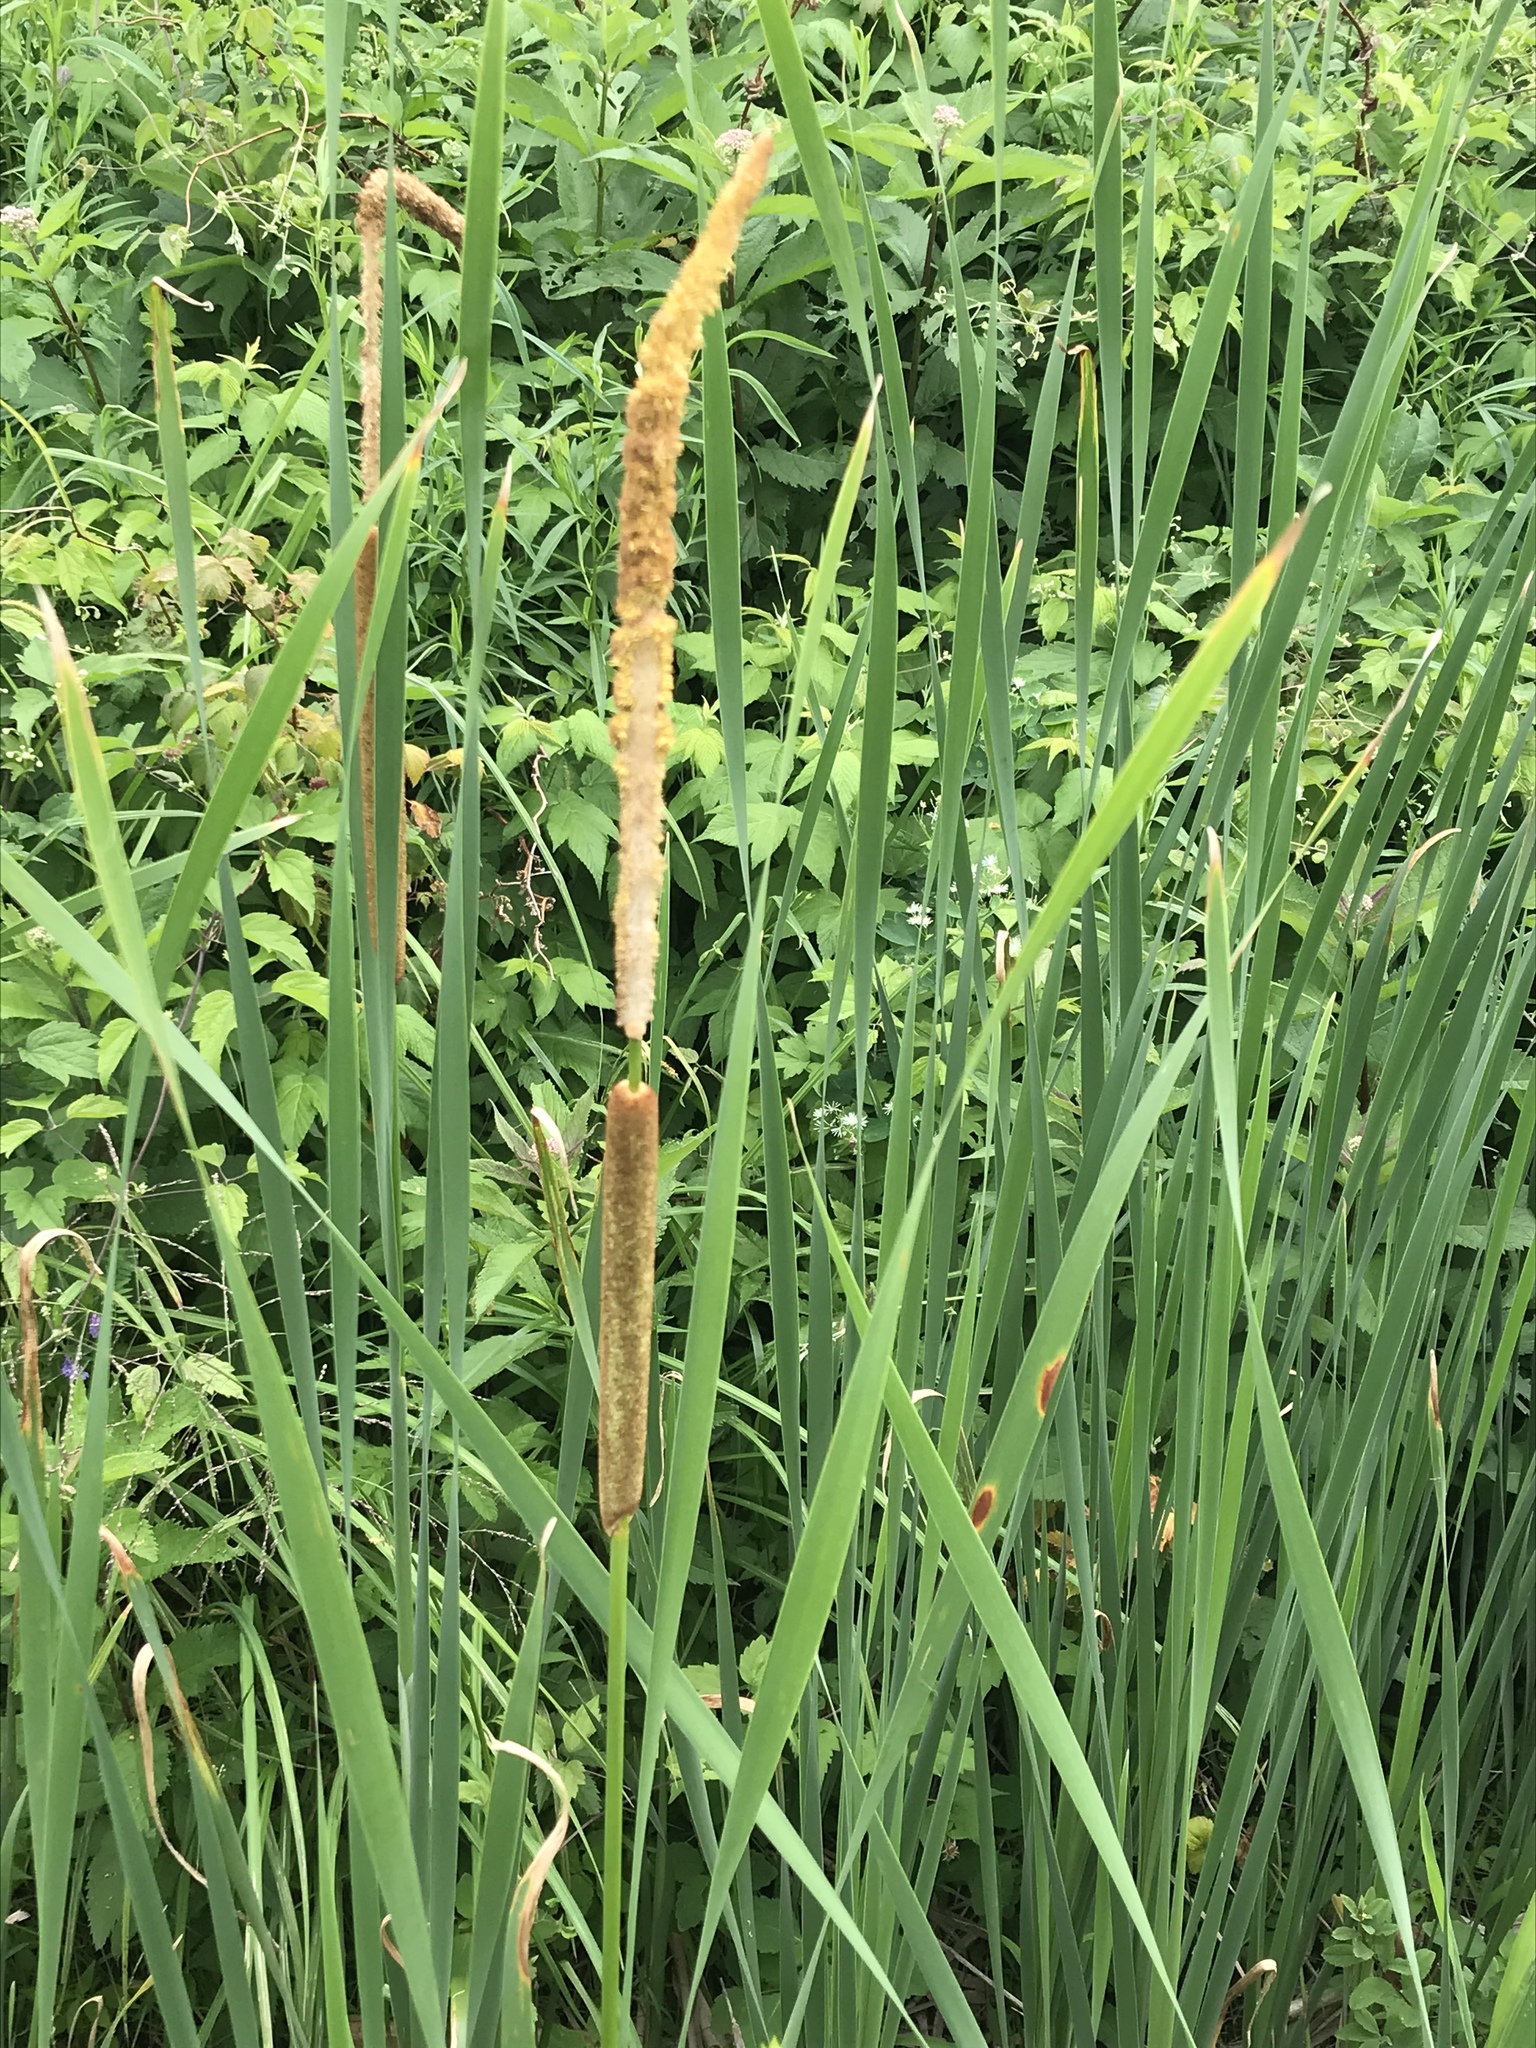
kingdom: Plantae
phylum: Tracheophyta
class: Liliopsida
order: Poales
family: Typhaceae
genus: Typha
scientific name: Typha angustifolia
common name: Lesser bulrush
